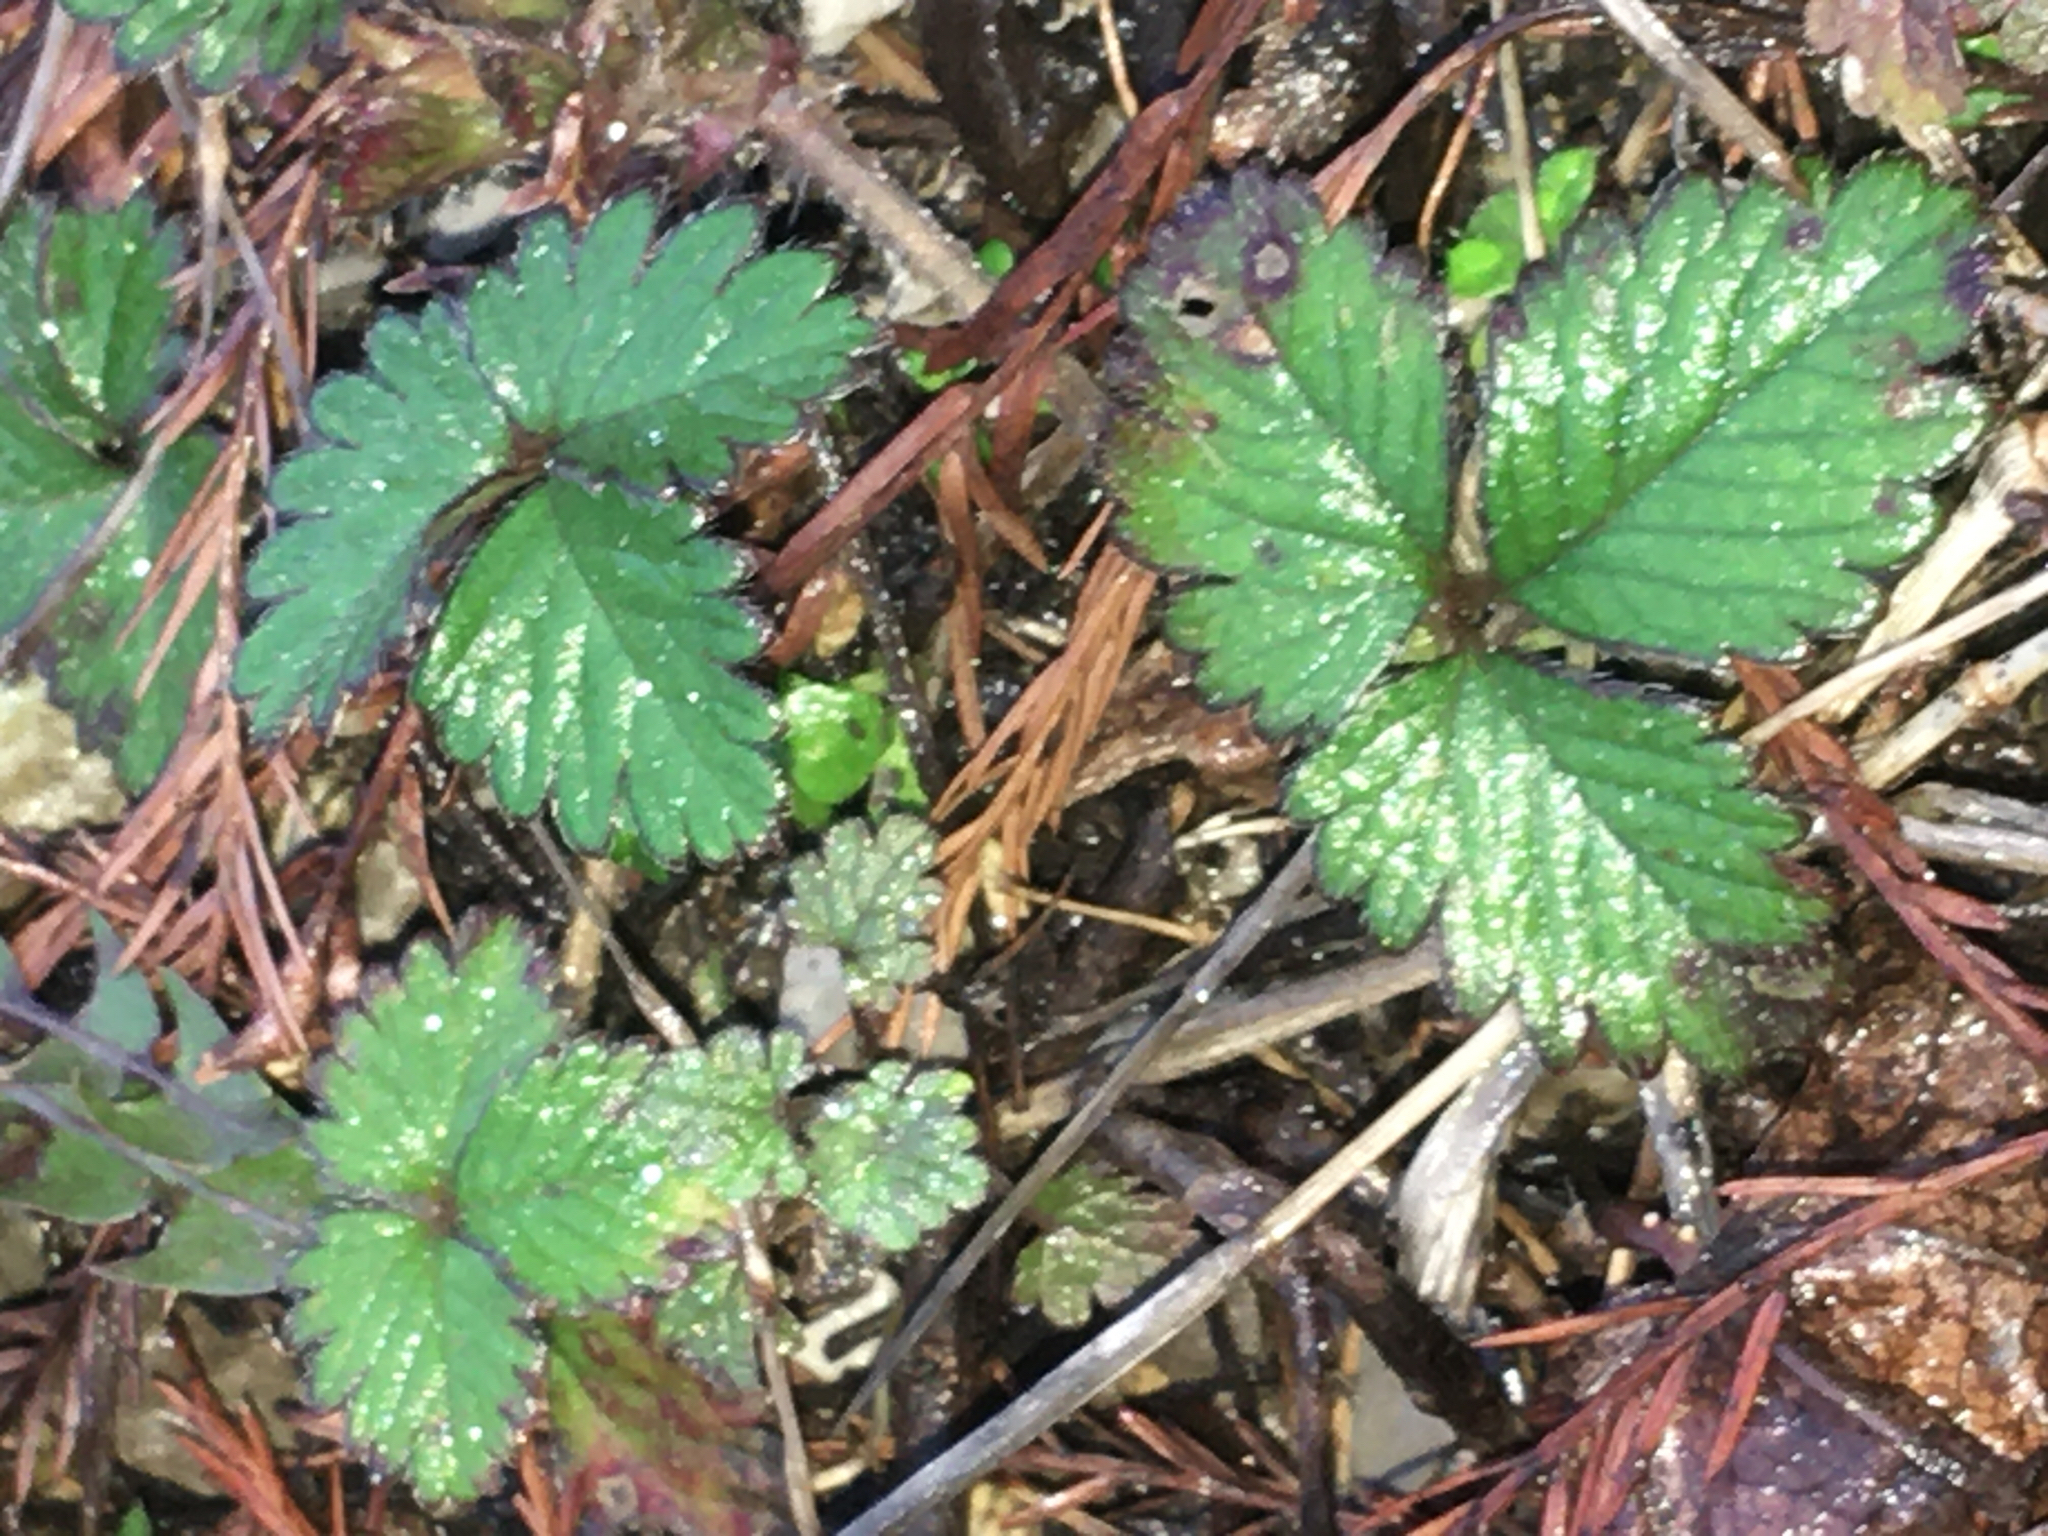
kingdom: Plantae
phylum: Tracheophyta
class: Magnoliopsida
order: Rosales
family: Rosaceae
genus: Potentilla
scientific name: Potentilla indica
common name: Yellow-flowered strawberry
